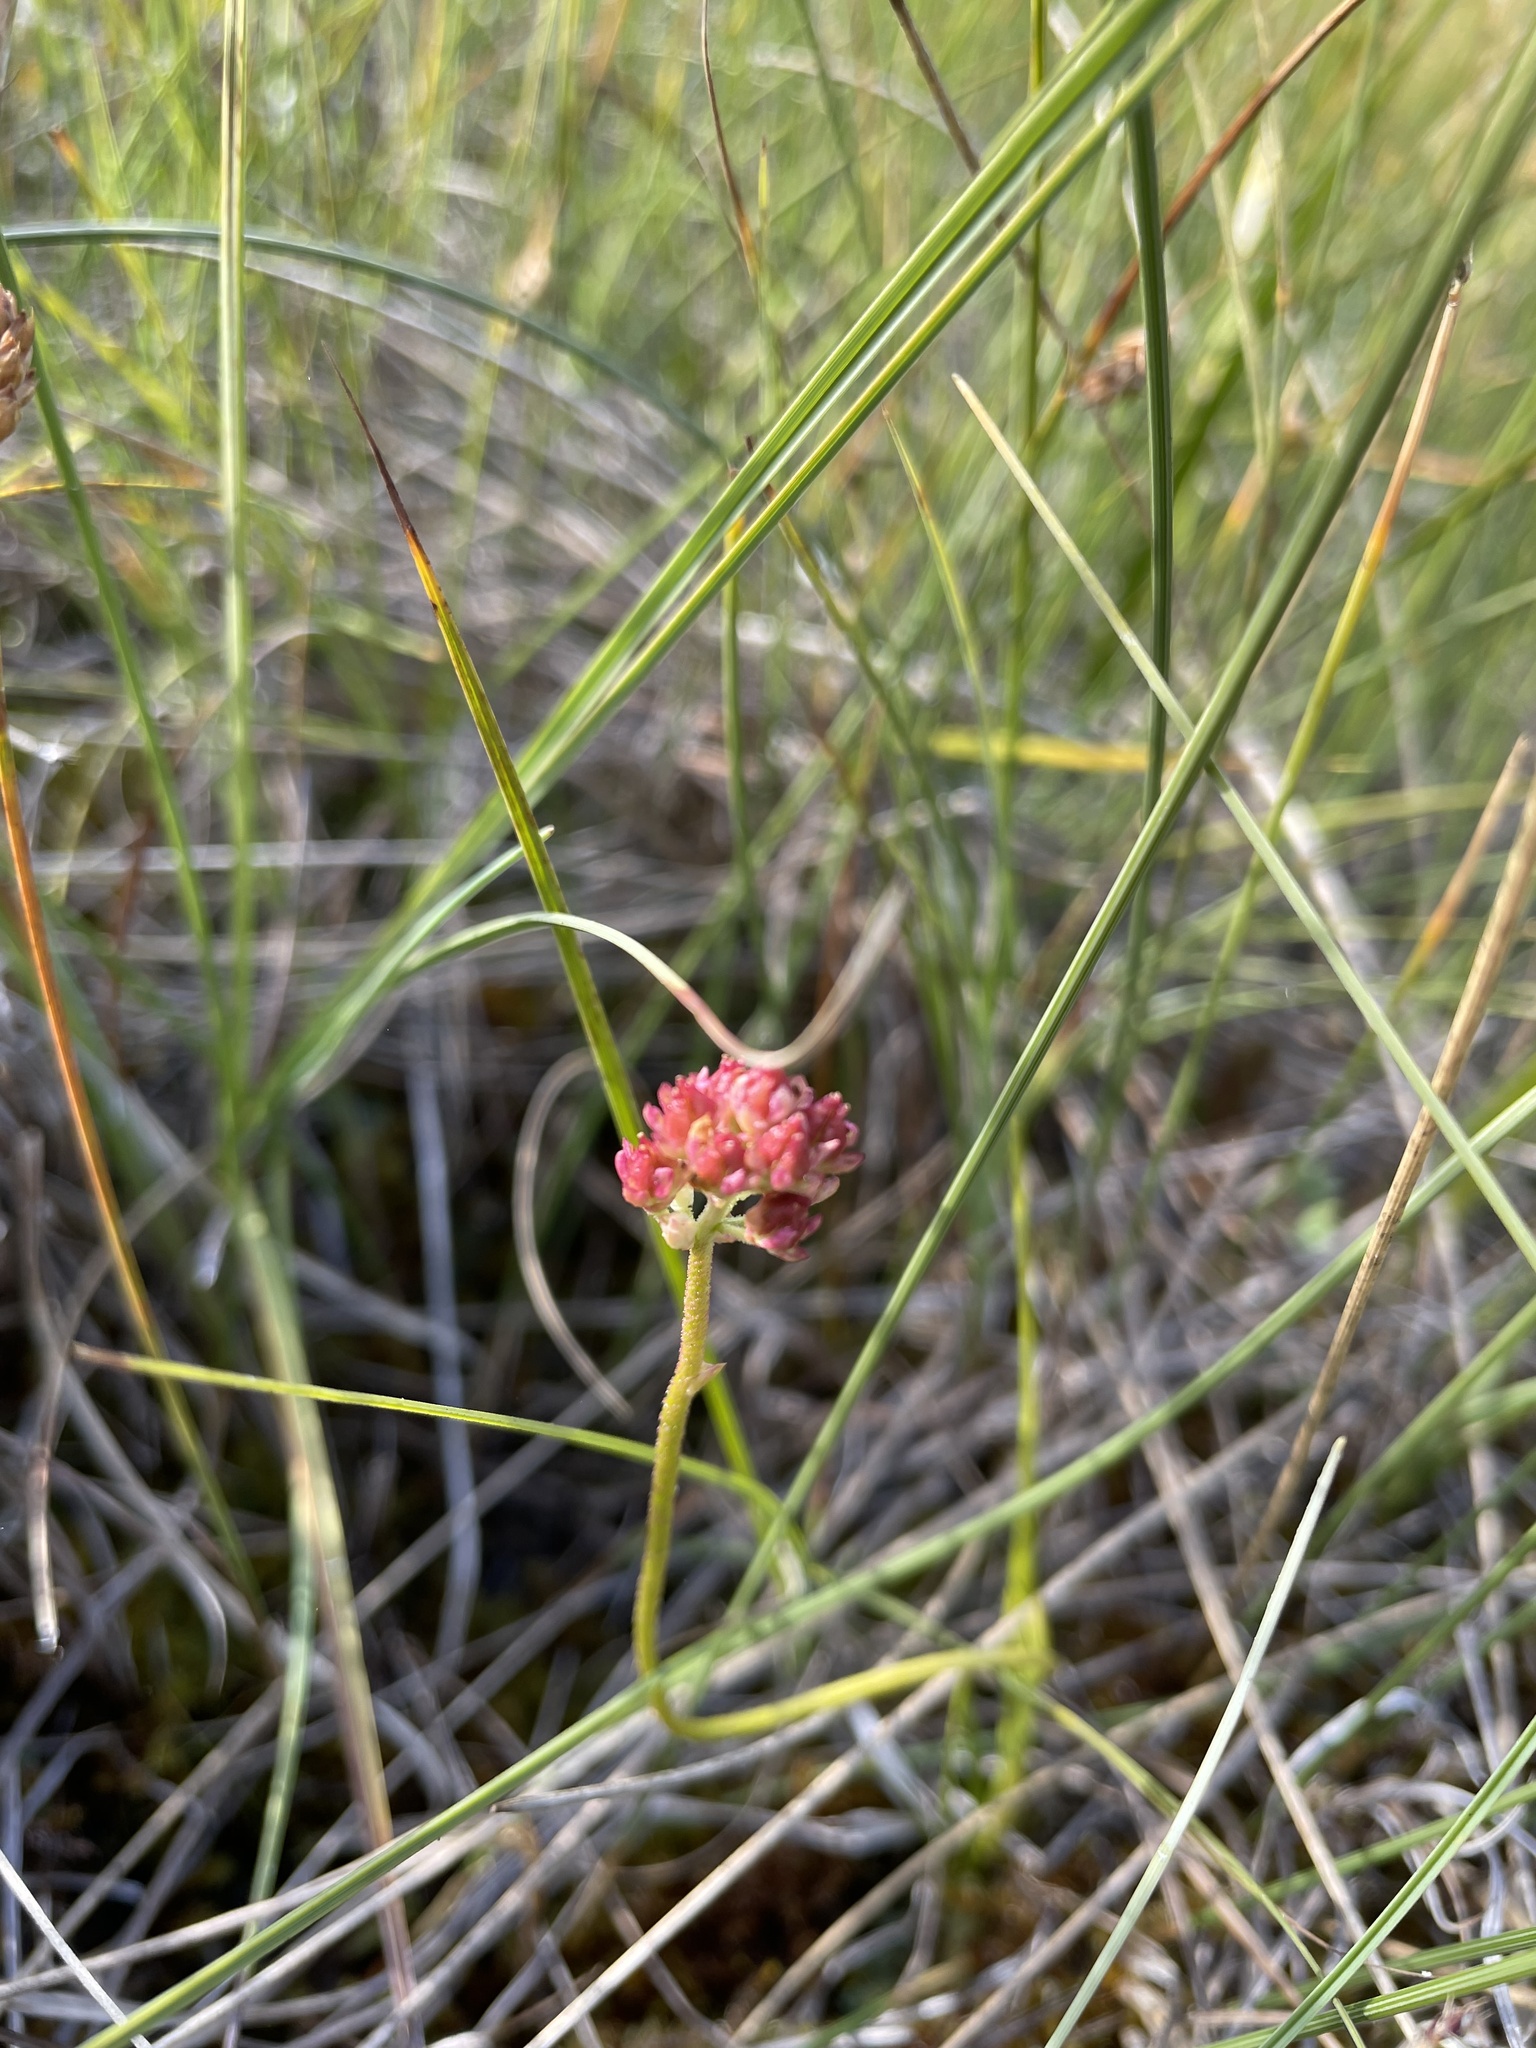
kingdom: Plantae
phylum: Tracheophyta
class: Liliopsida
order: Alismatales
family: Tofieldiaceae
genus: Triantha
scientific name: Triantha glutinosa
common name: Glutinous tofieldia
